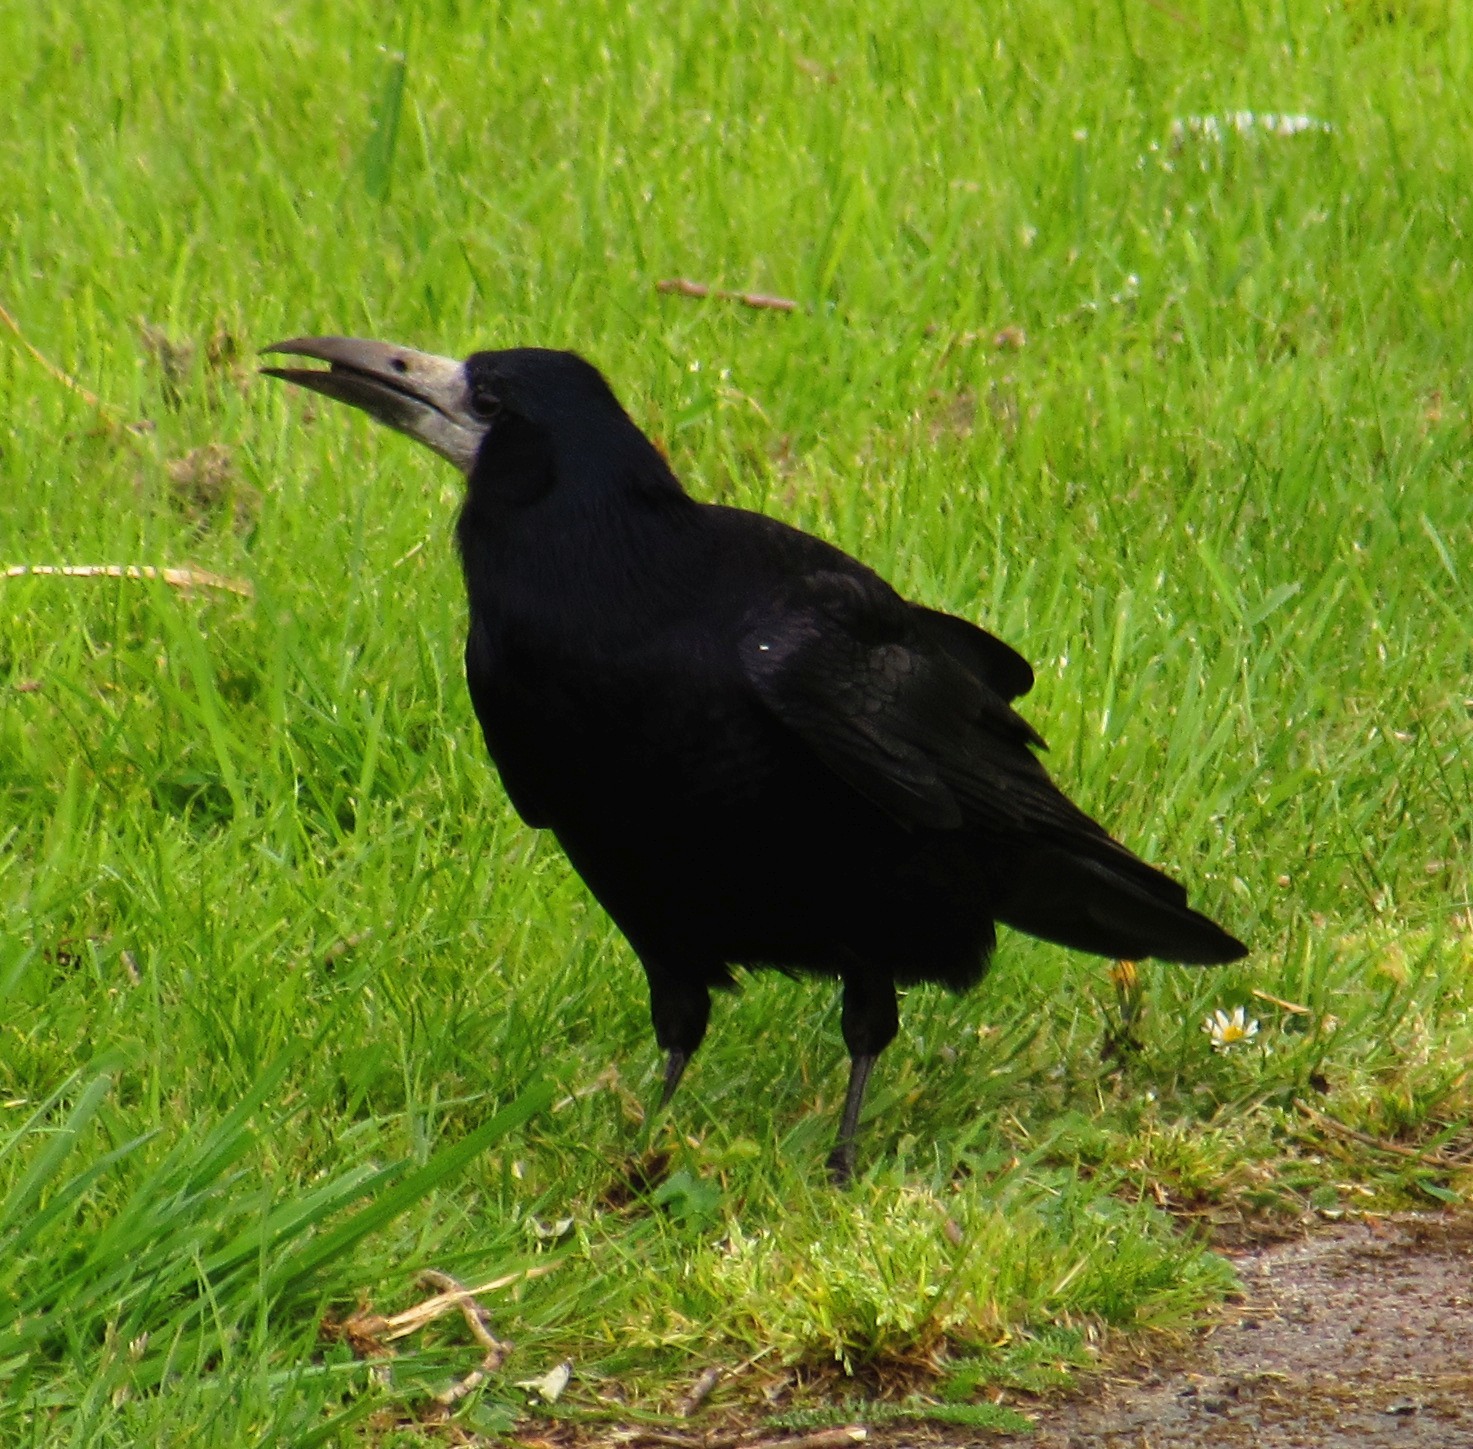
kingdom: Animalia
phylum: Chordata
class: Aves
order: Passeriformes
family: Corvidae
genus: Corvus
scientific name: Corvus frugilegus
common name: Rook
